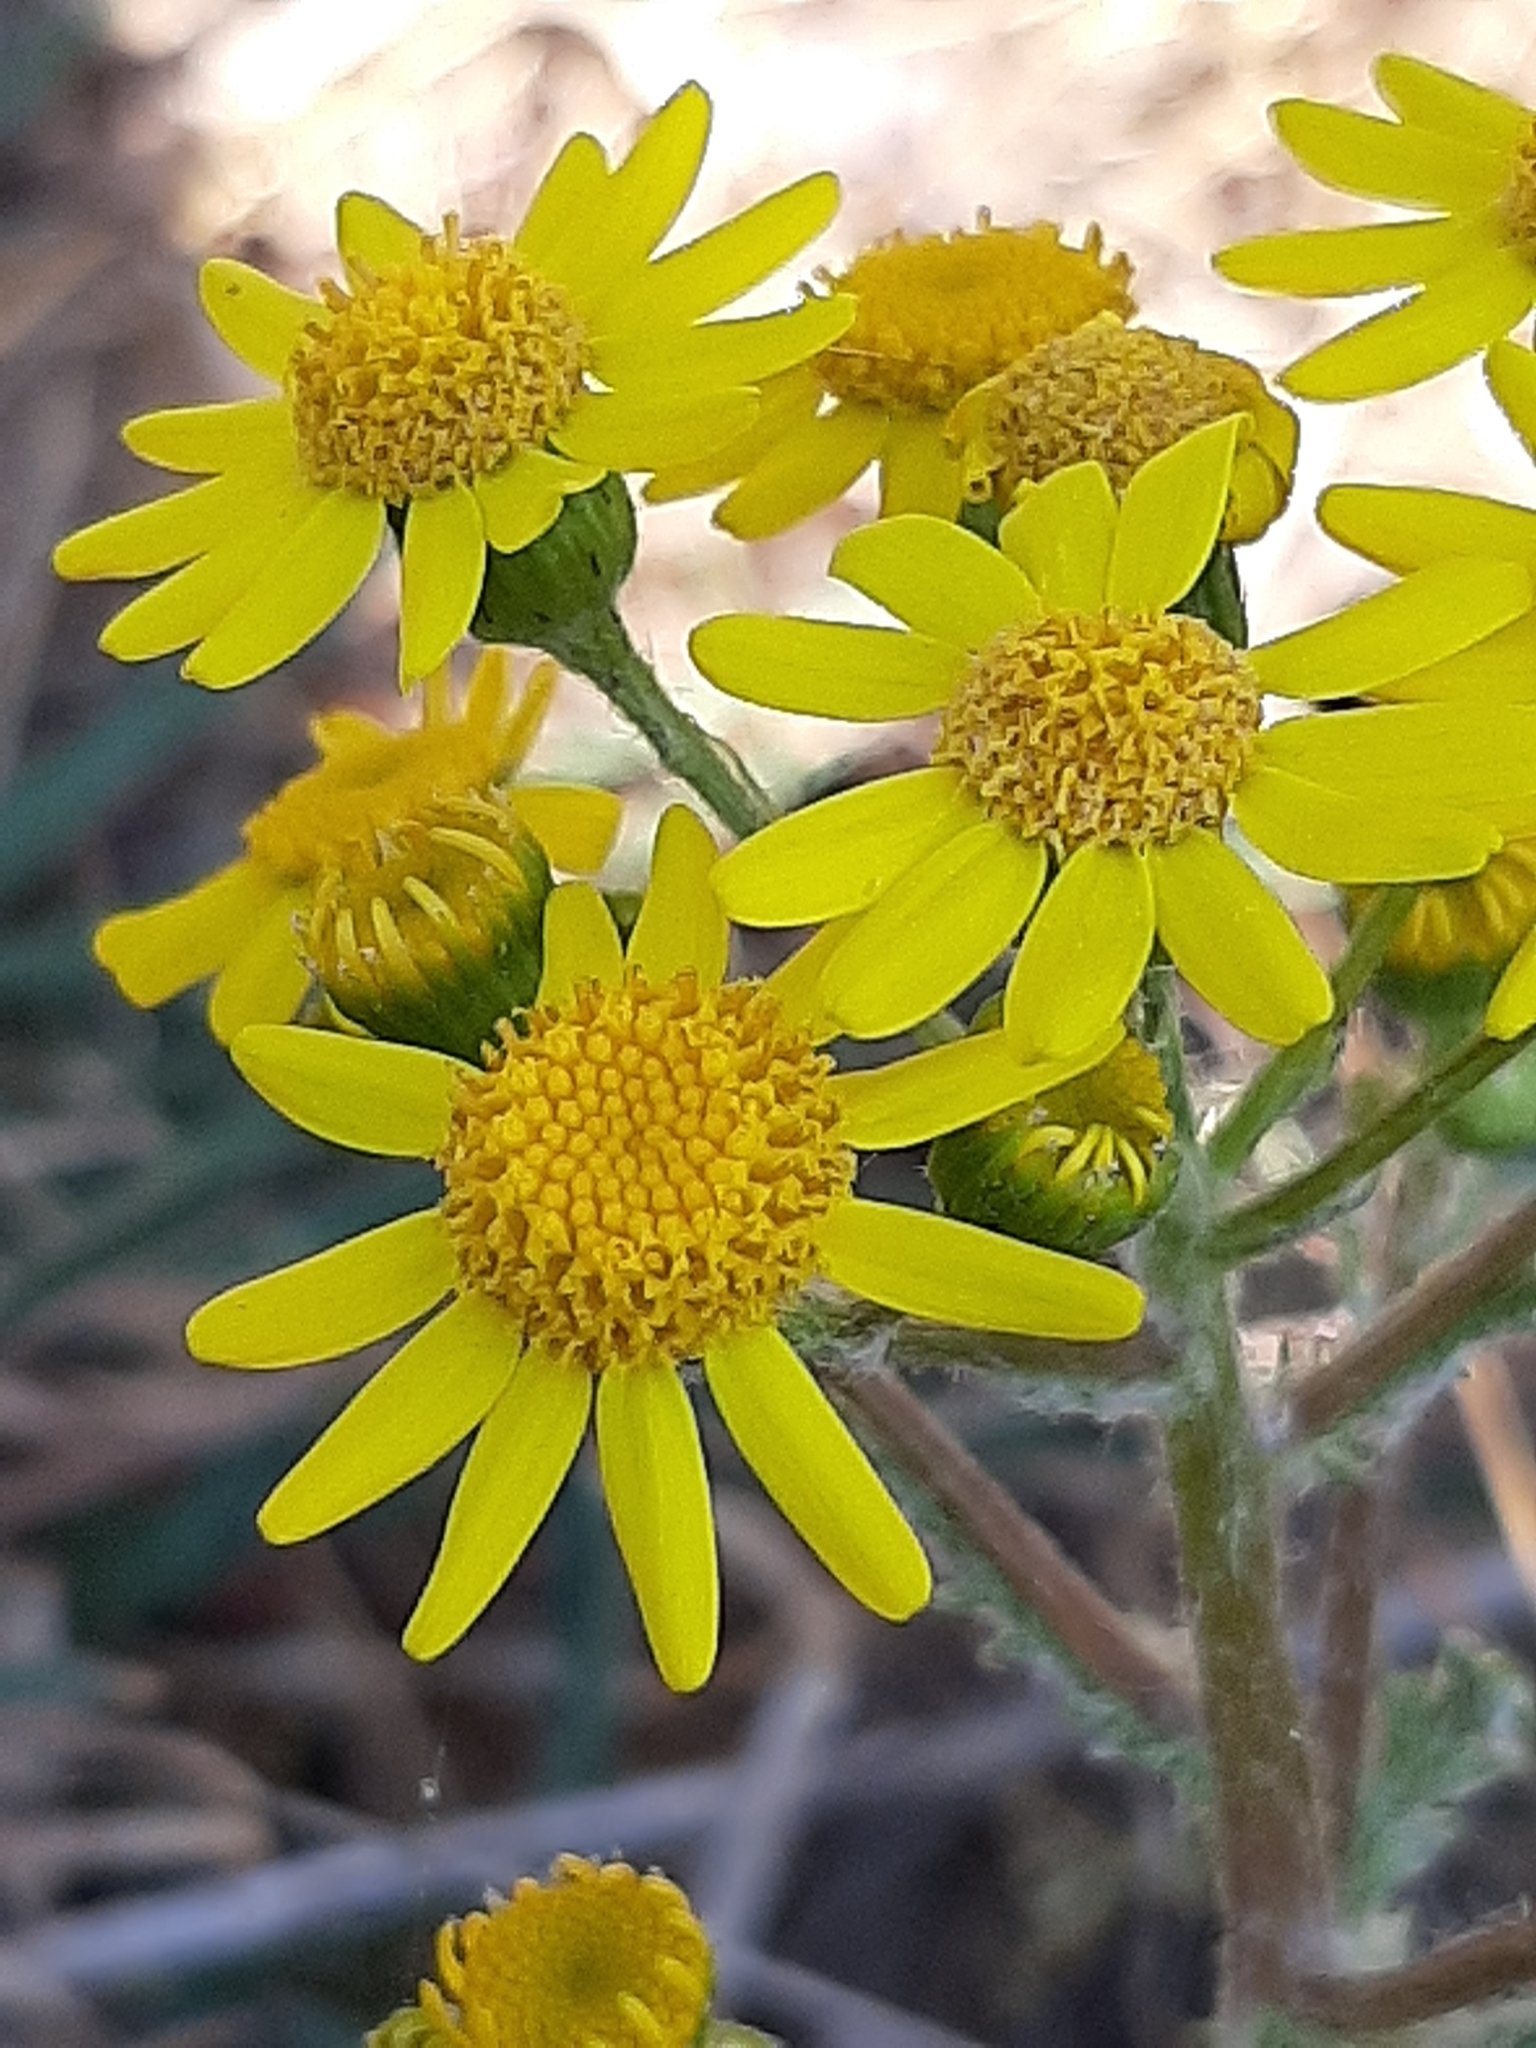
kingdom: Plantae
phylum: Tracheophyta
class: Magnoliopsida
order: Asterales
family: Asteraceae
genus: Senecio
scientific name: Senecio vernalis
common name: Eastern groundsel
